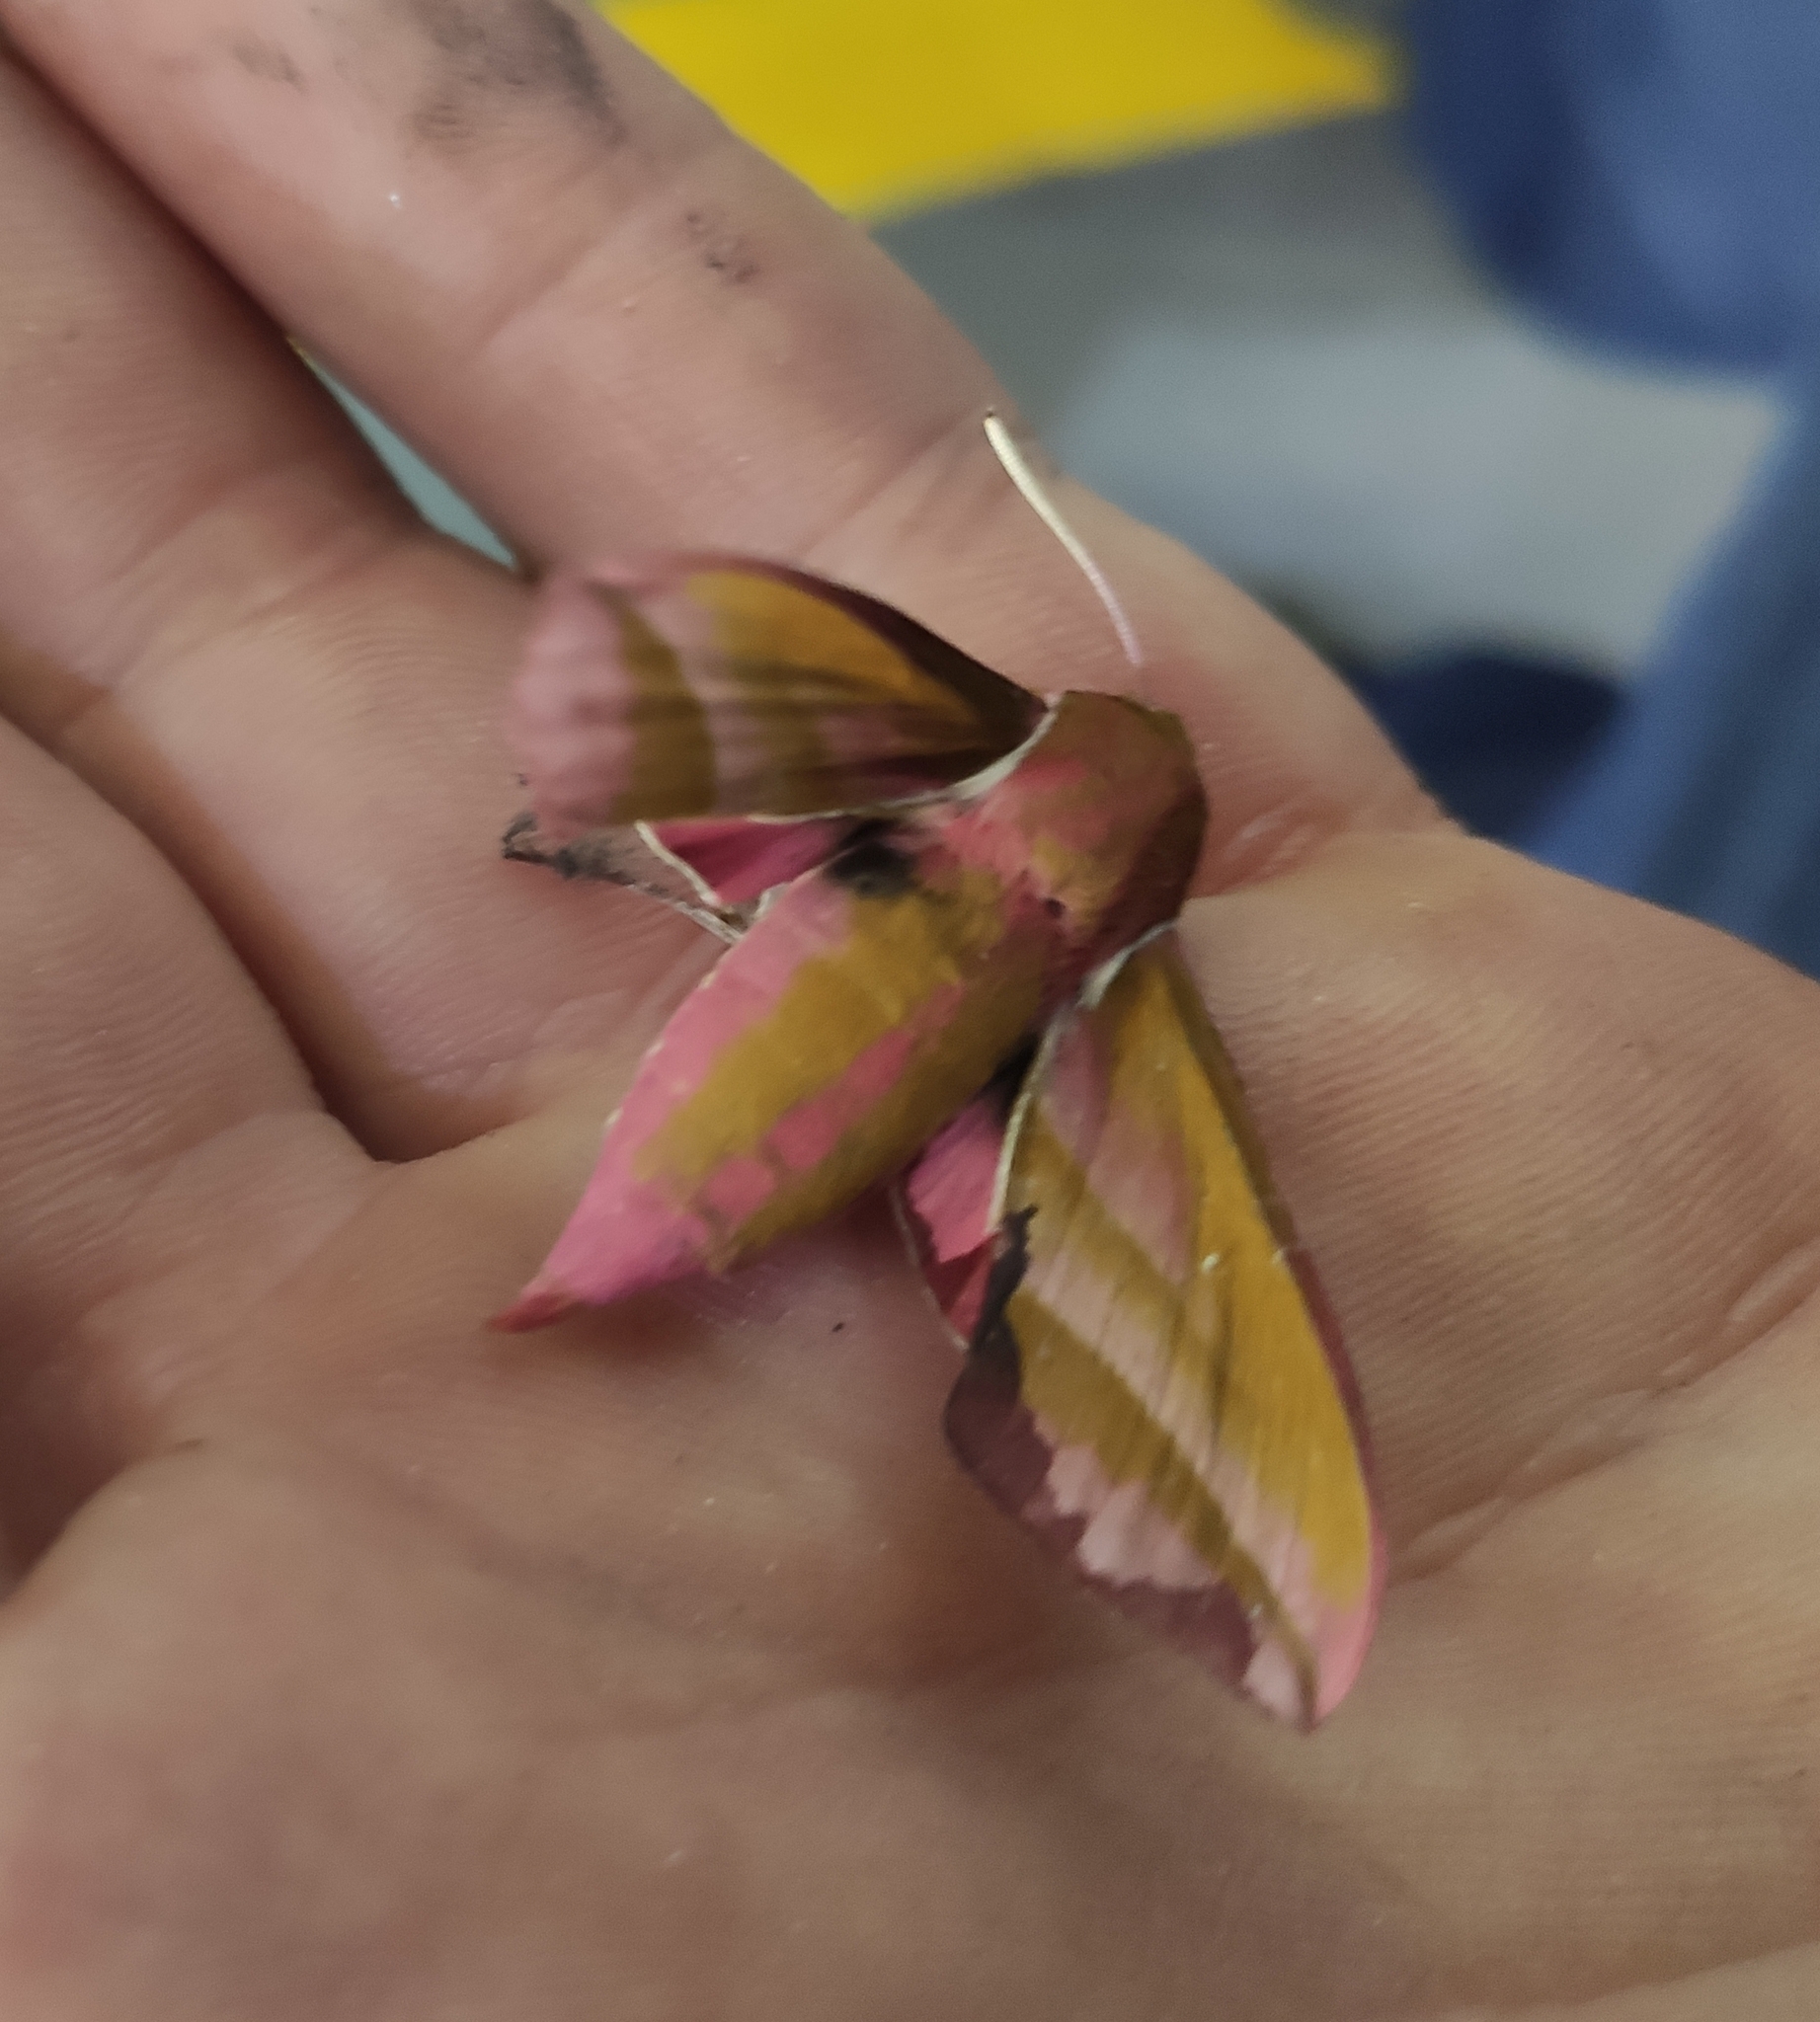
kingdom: Animalia
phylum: Arthropoda
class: Insecta
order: Lepidoptera
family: Sphingidae
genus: Deilephila
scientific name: Deilephila elpenor
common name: Elephant hawk-moth
